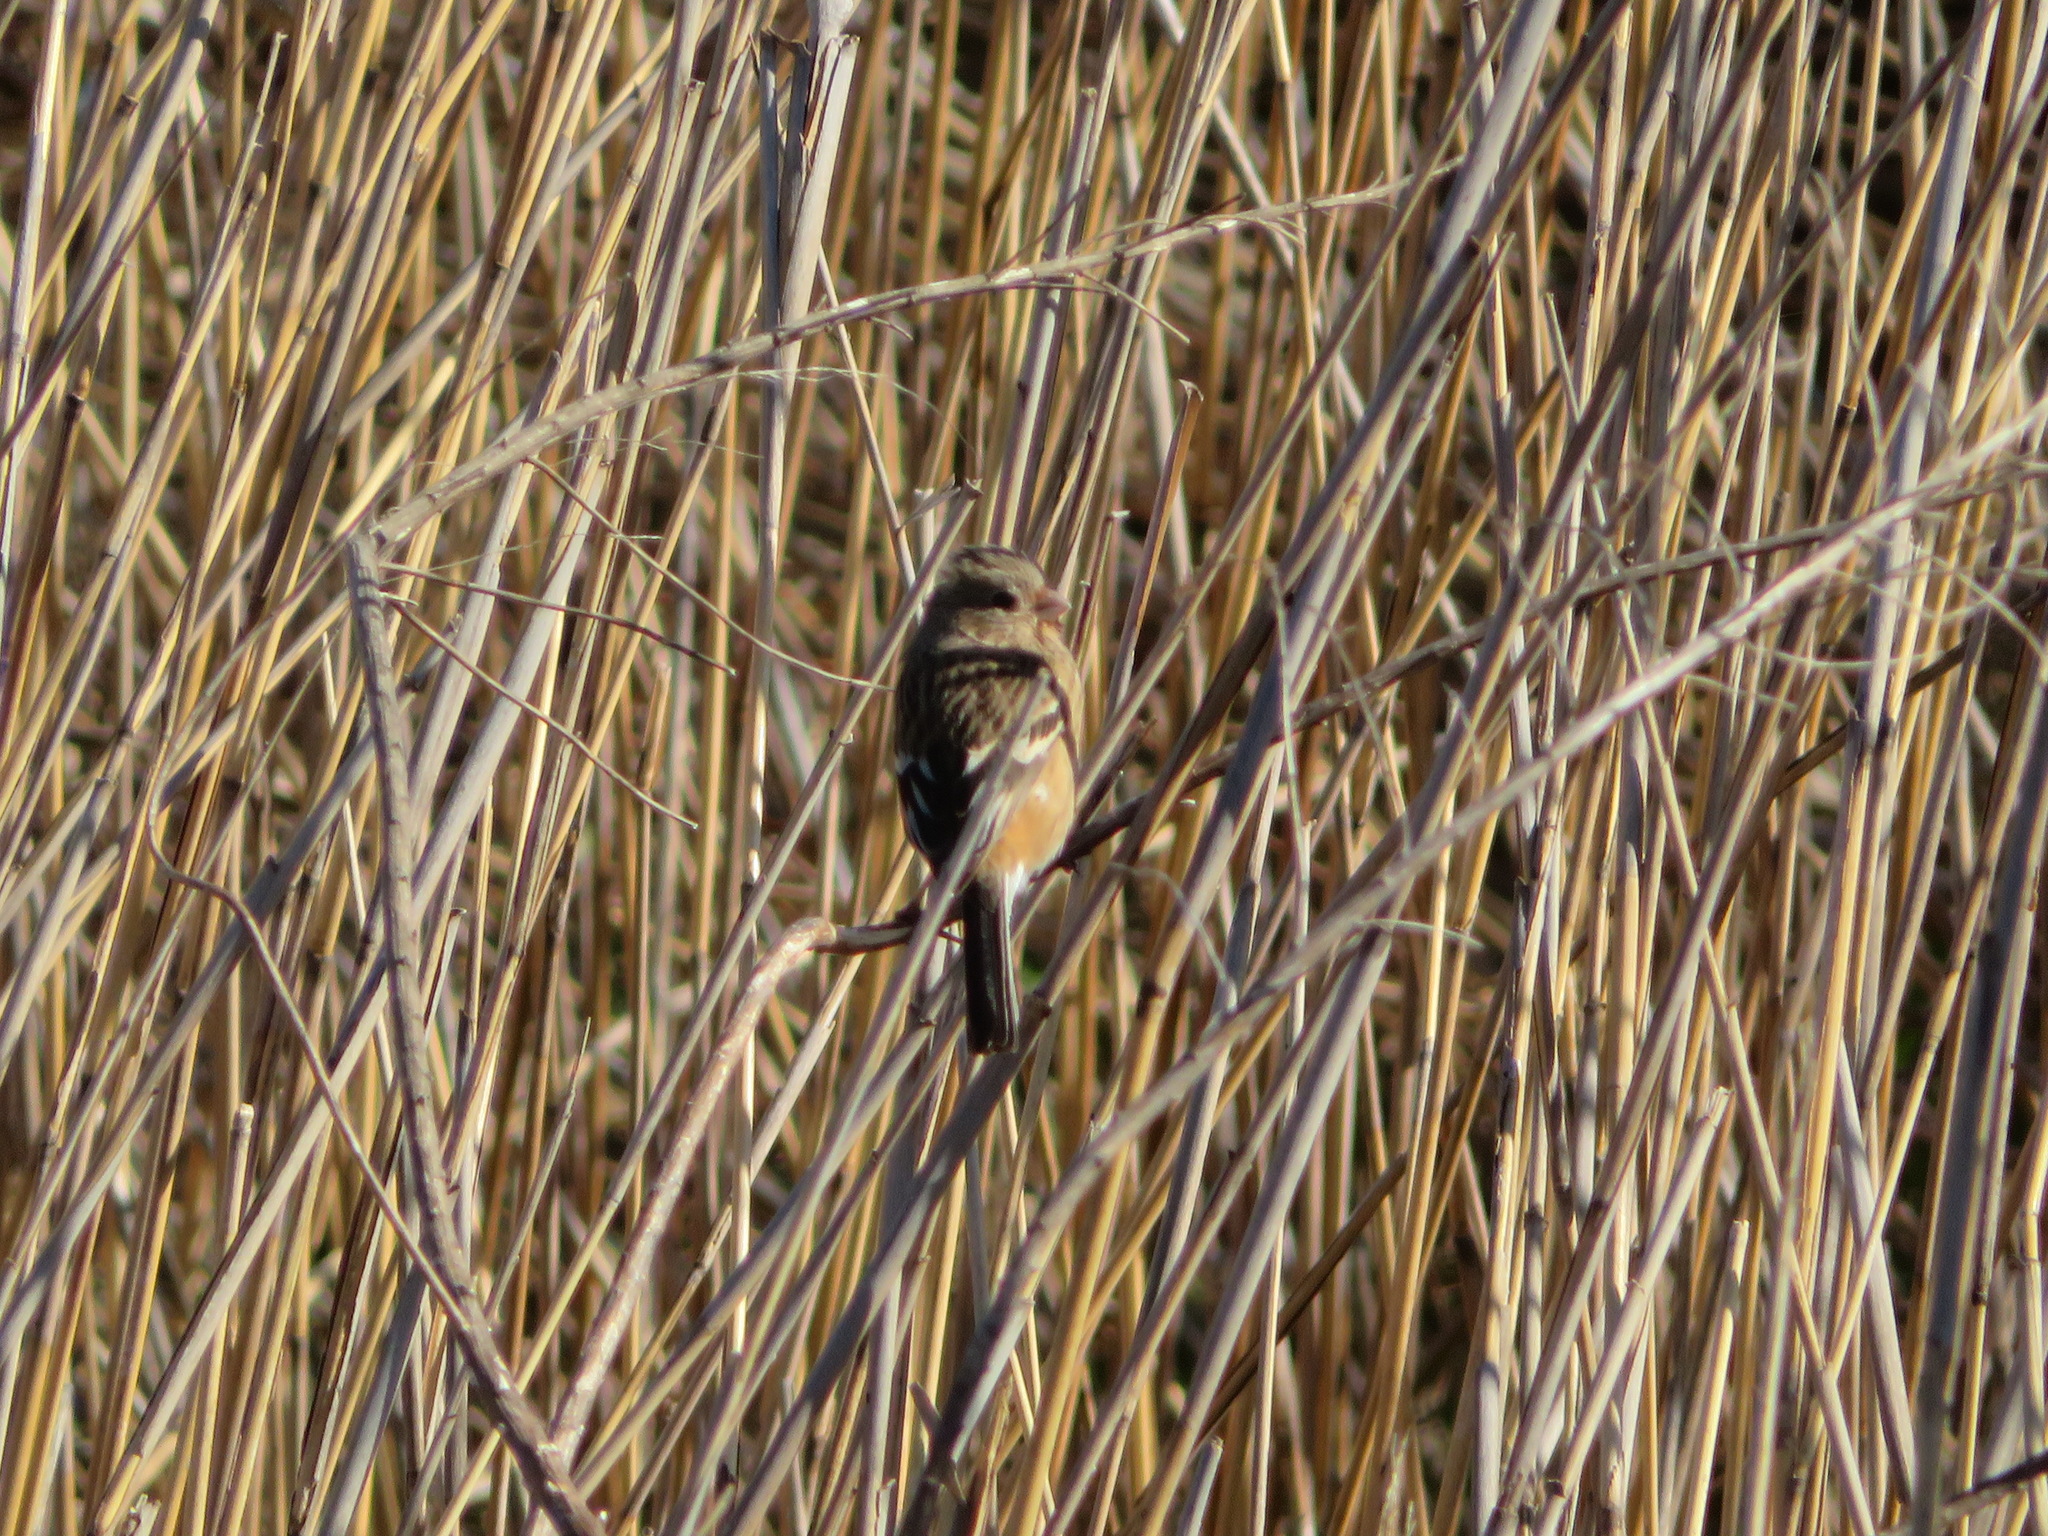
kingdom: Animalia
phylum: Chordata
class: Aves
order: Passeriformes
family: Fringillidae
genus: Carpodacus
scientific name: Carpodacus sibiricus
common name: Long-tailed rosefinch
